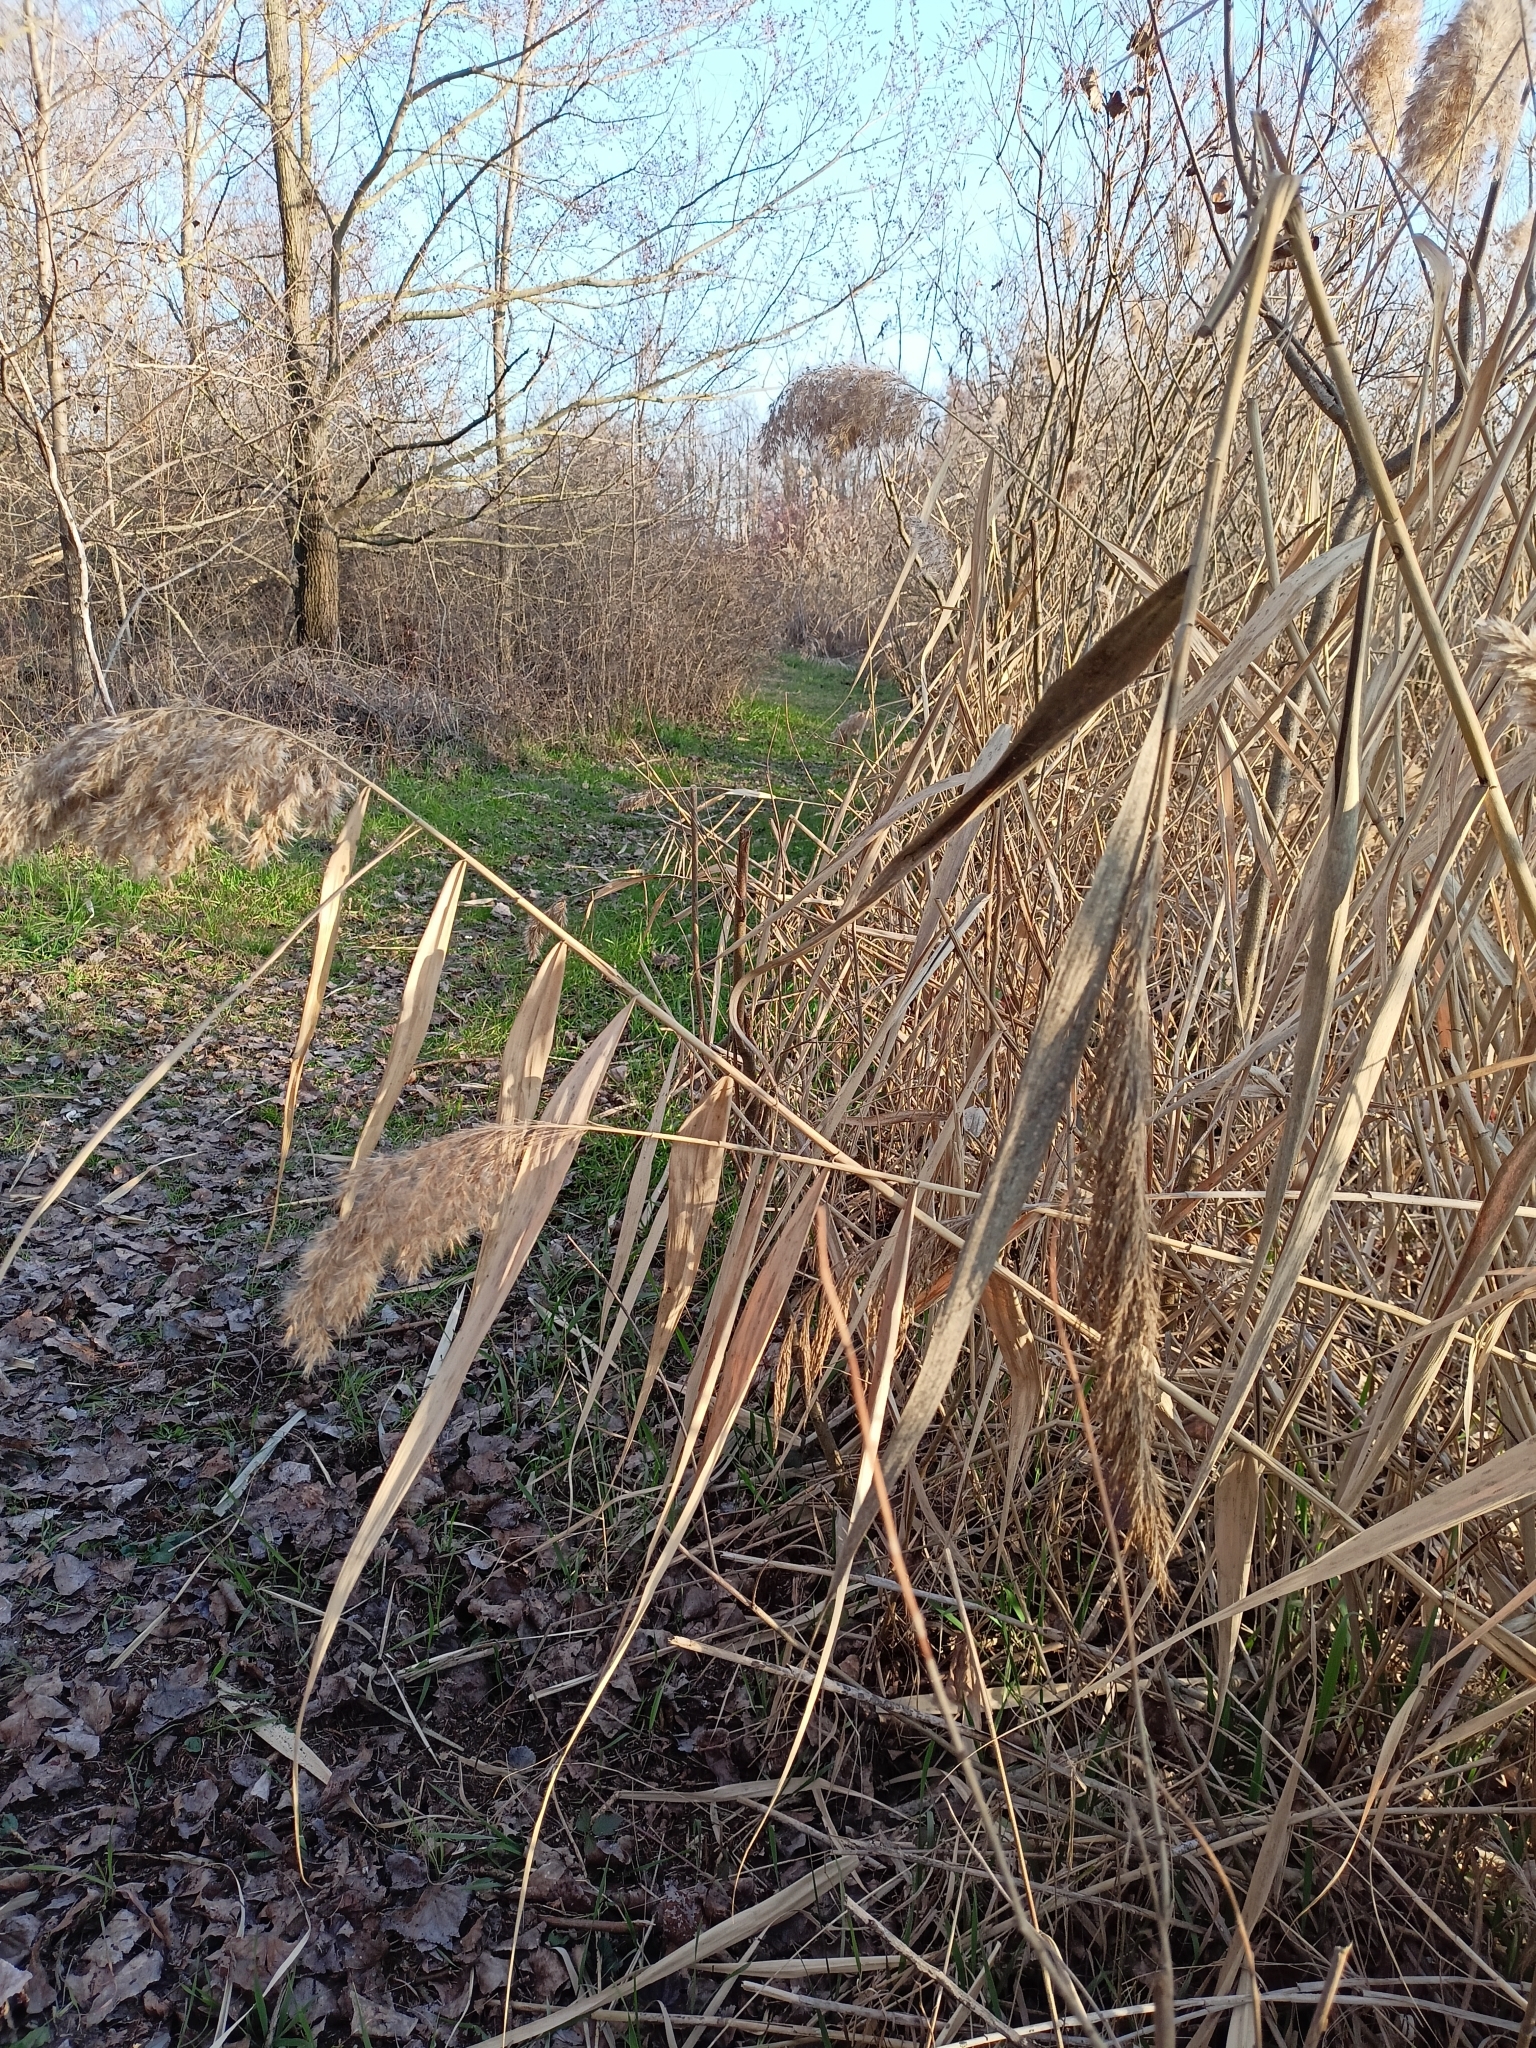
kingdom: Plantae
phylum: Tracheophyta
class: Liliopsida
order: Poales
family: Poaceae
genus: Phragmites
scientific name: Phragmites australis
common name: Common reed
